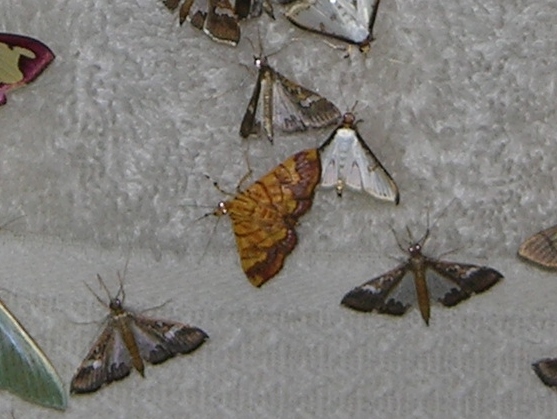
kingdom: Animalia
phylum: Arthropoda
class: Insecta
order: Lepidoptera
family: Crambidae
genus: Cryptosara
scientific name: Cryptosara caritalis
